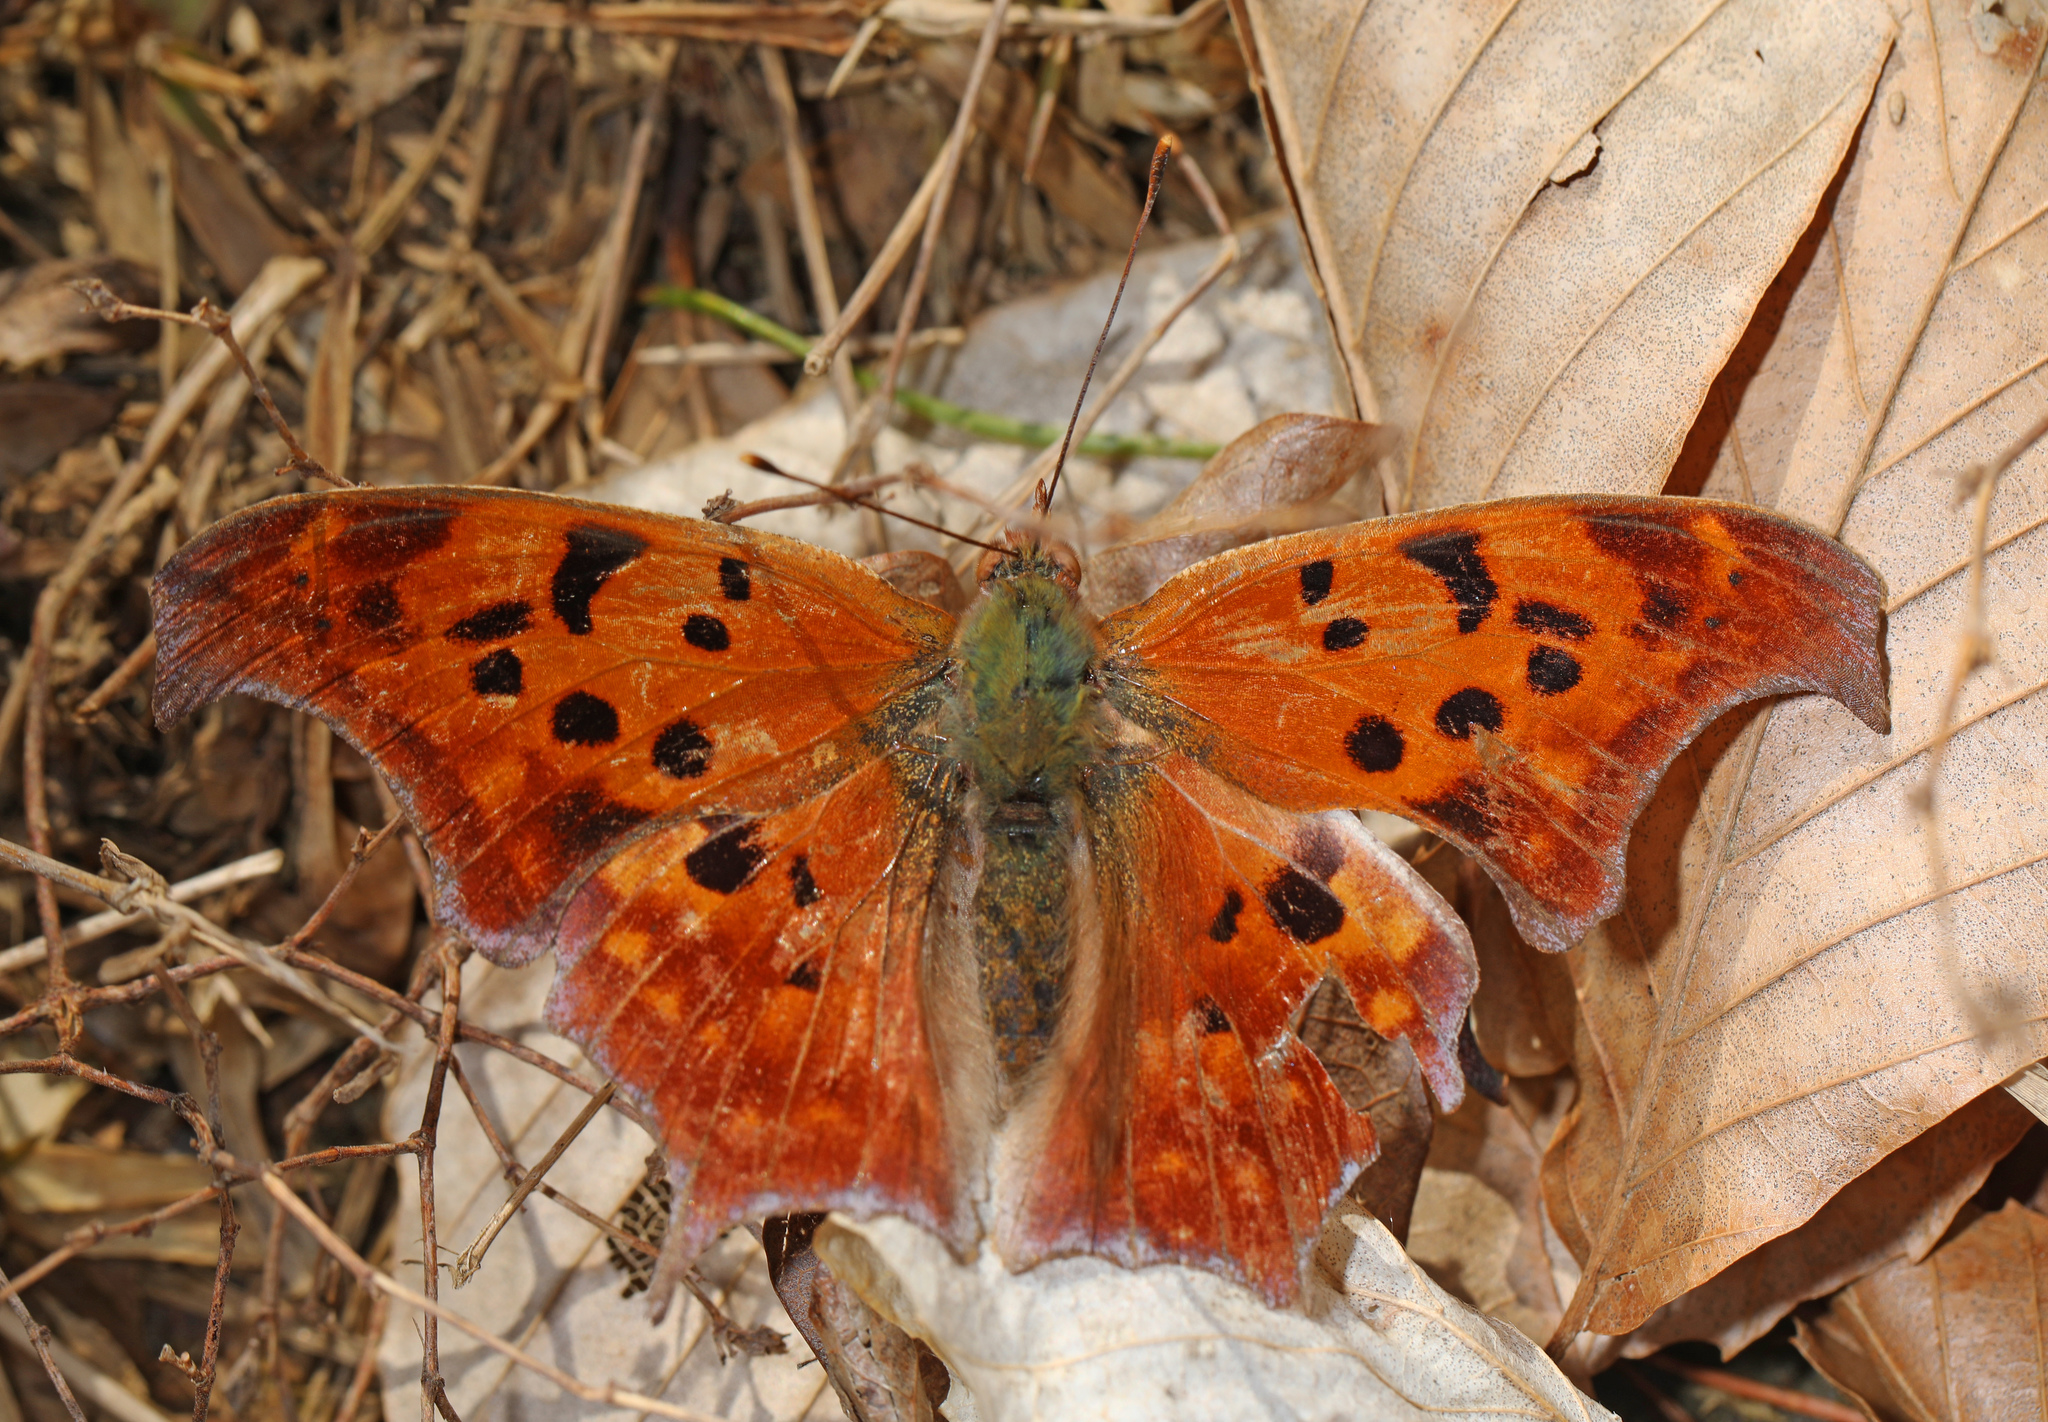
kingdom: Animalia
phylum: Arthropoda
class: Insecta
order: Lepidoptera
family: Nymphalidae
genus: Polygonia
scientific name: Polygonia interrogationis
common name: Question mark
